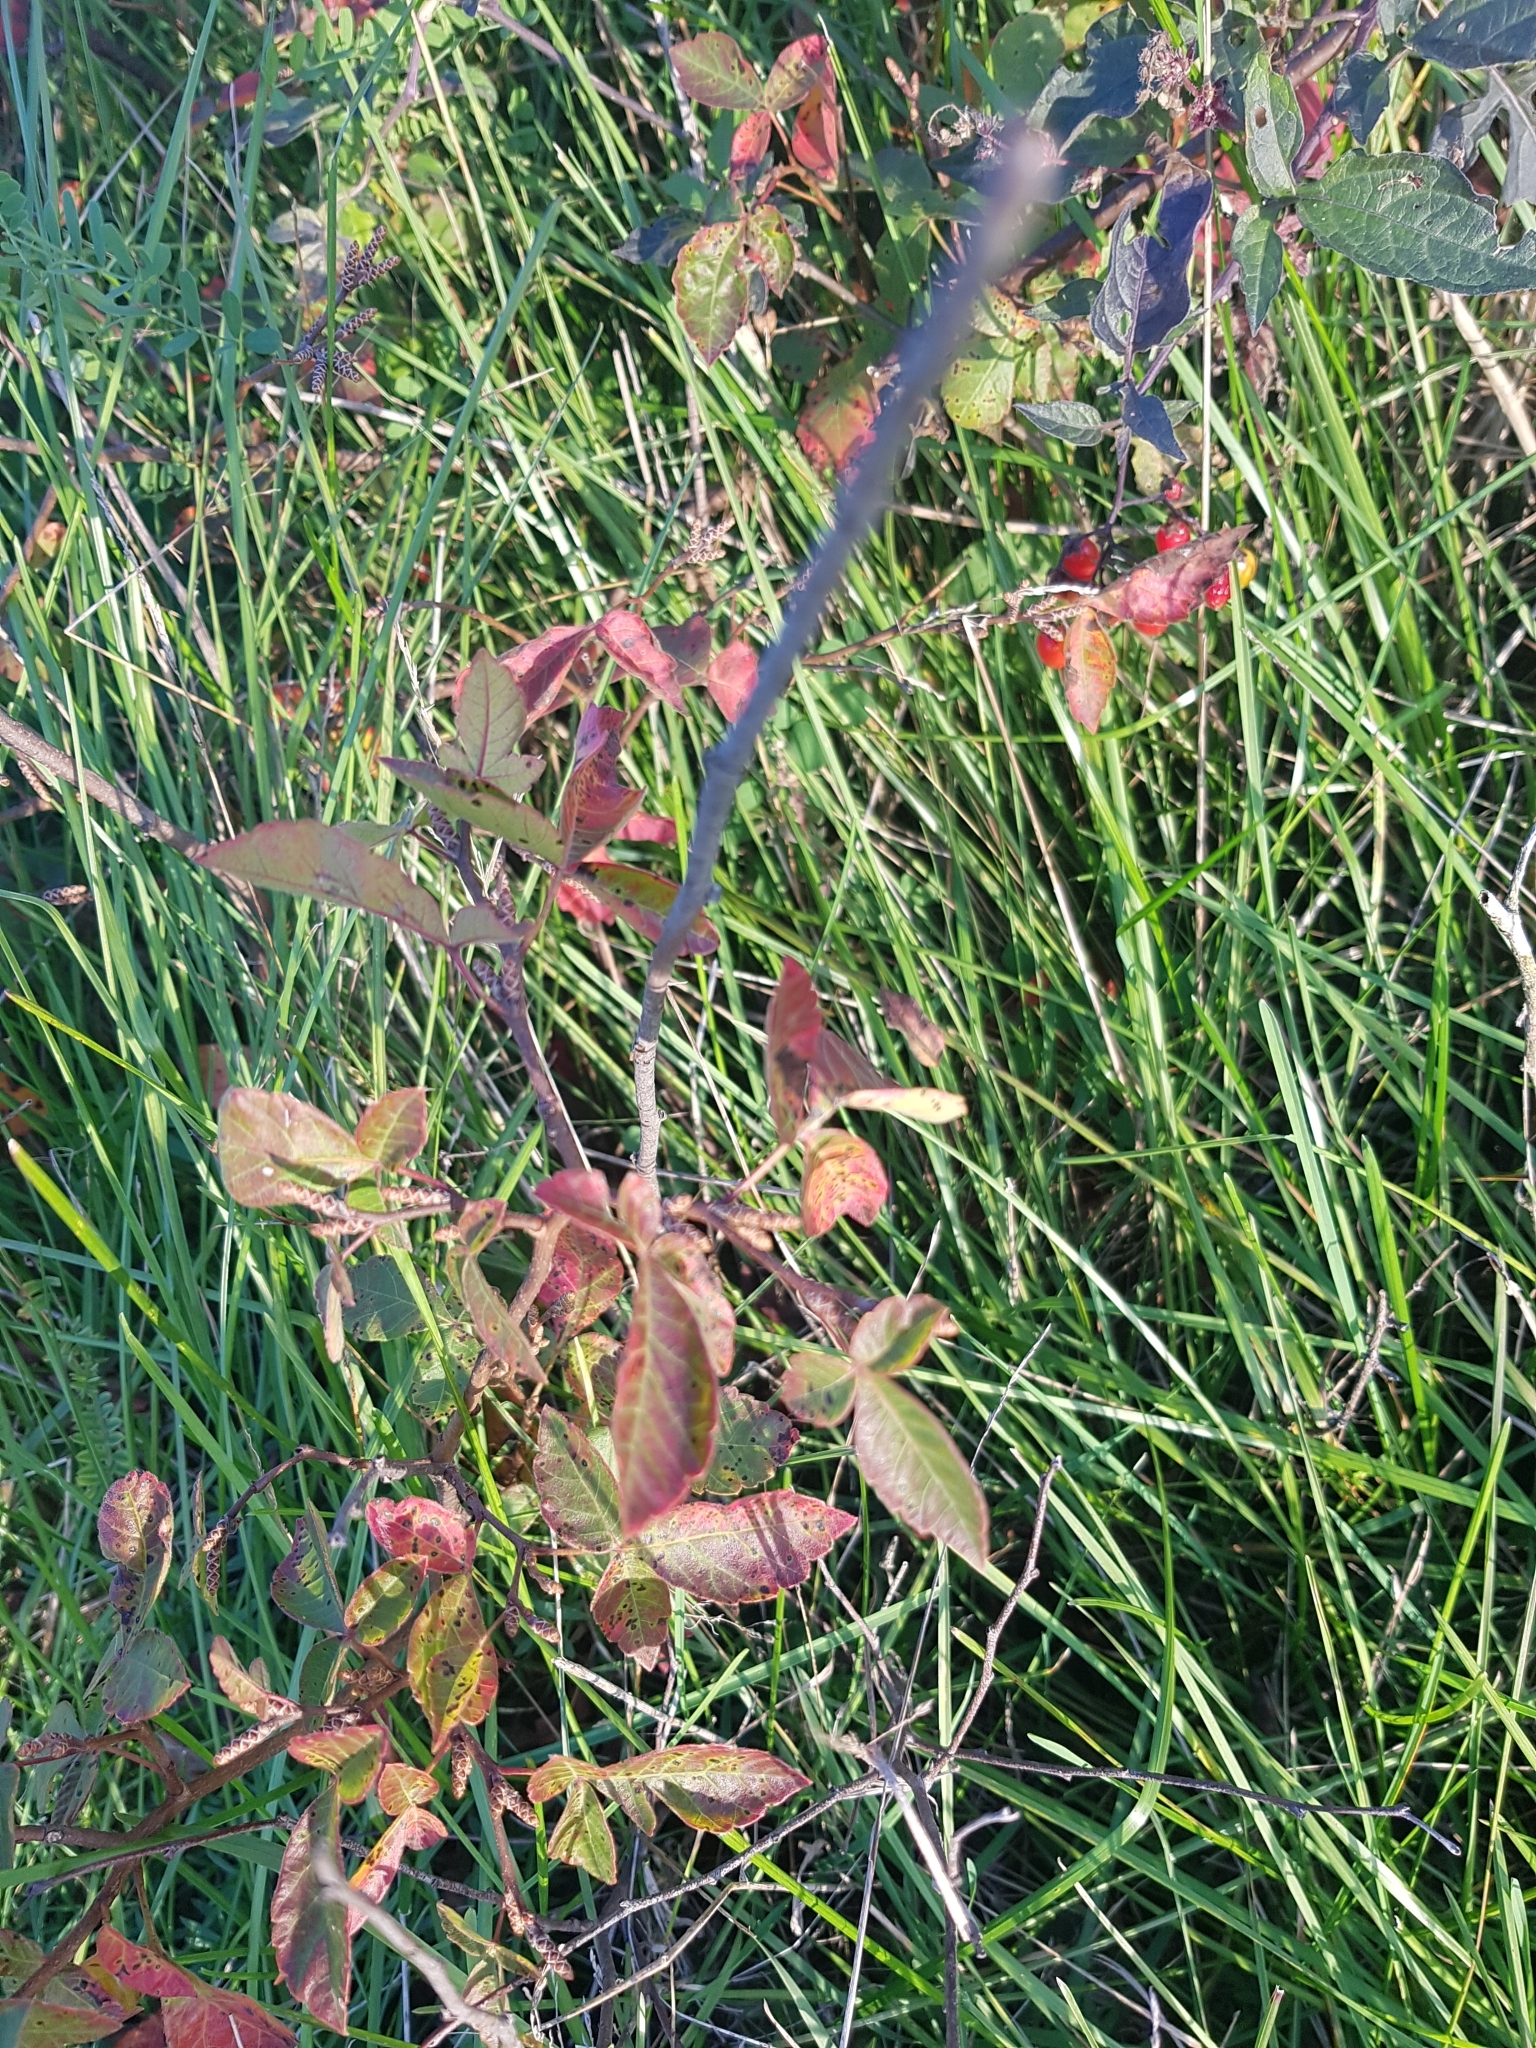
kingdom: Plantae
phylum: Tracheophyta
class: Magnoliopsida
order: Solanales
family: Solanaceae
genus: Solanum
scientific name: Solanum dulcamara
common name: Climbing nightshade
